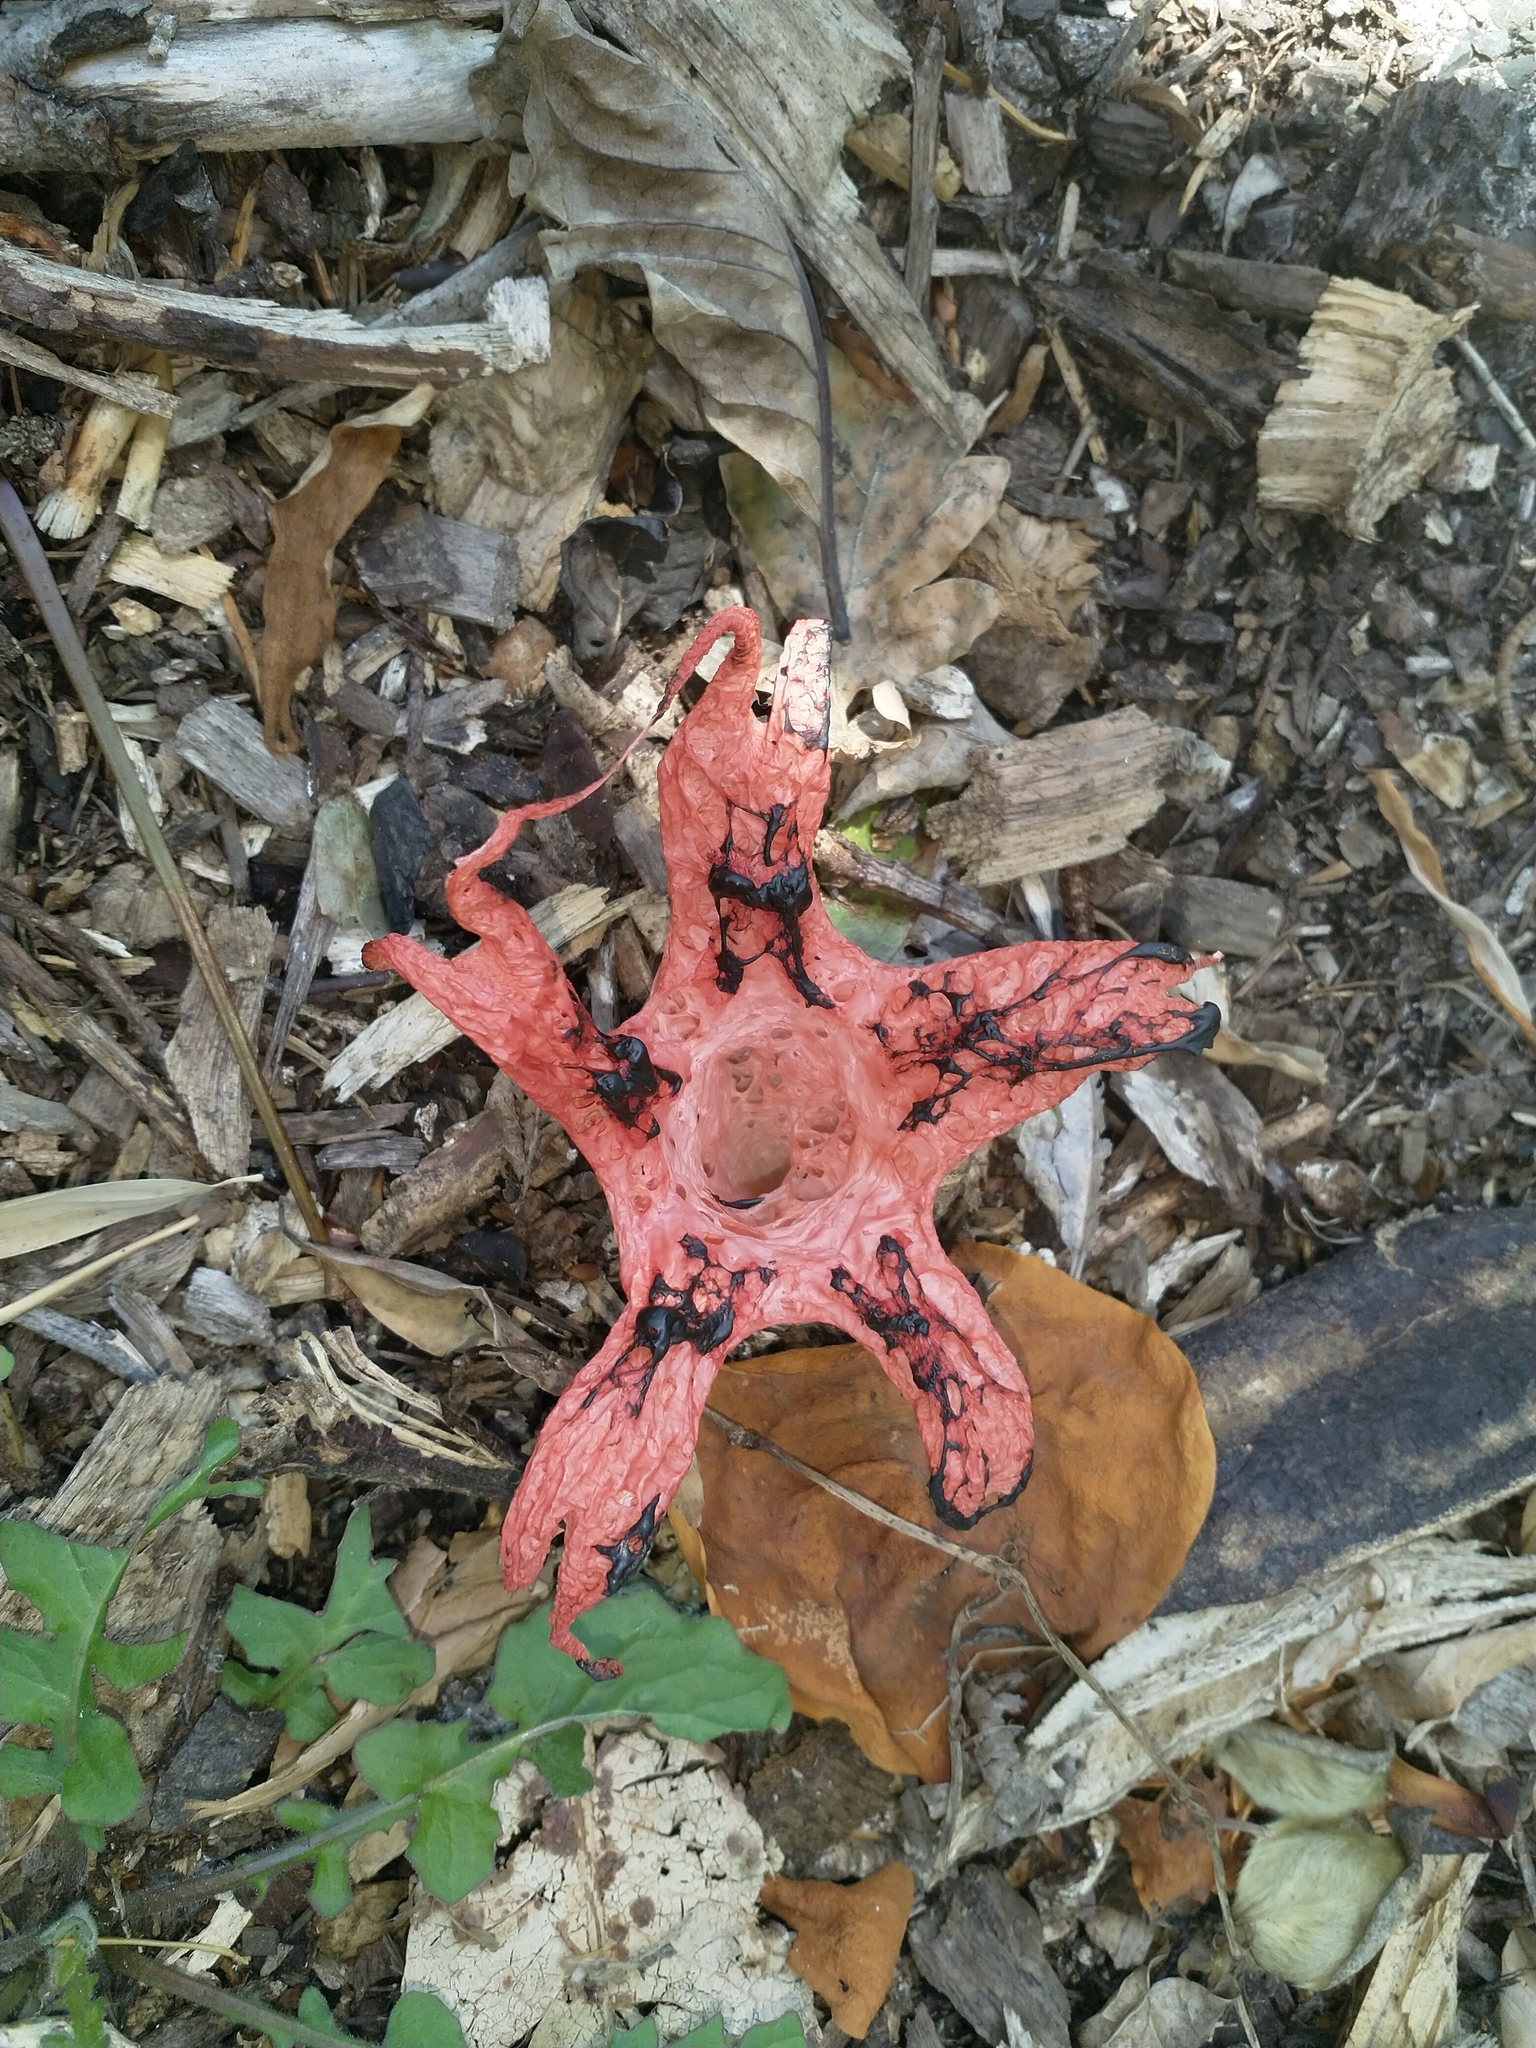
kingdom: Fungi
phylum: Basidiomycota
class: Agaricomycetes
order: Phallales
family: Phallaceae
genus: Clathrus
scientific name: Clathrus archeri
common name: Devil's fingers
